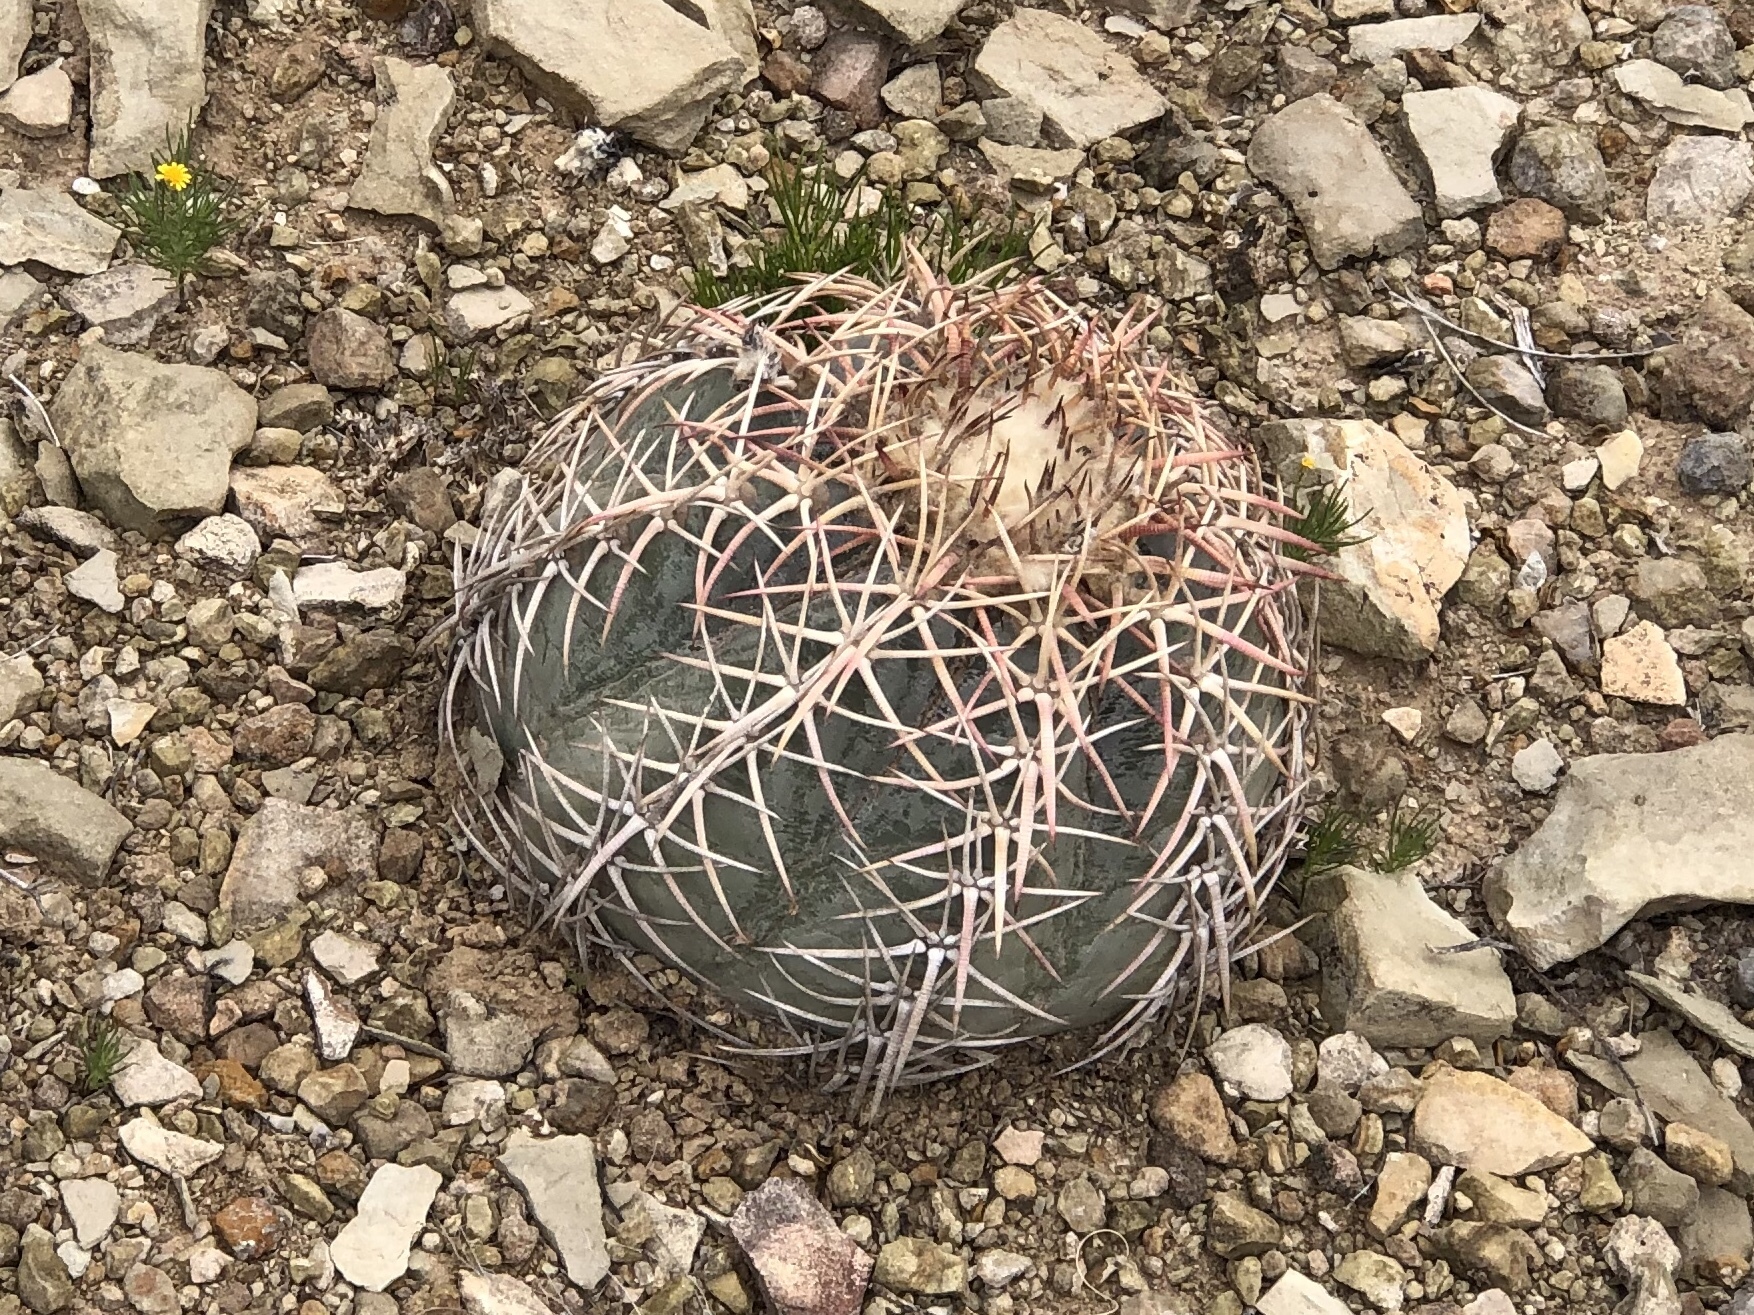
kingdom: Plantae
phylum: Tracheophyta
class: Magnoliopsida
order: Caryophyllales
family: Cactaceae
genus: Echinocactus
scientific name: Echinocactus horizonthalonius
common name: Devilshead
